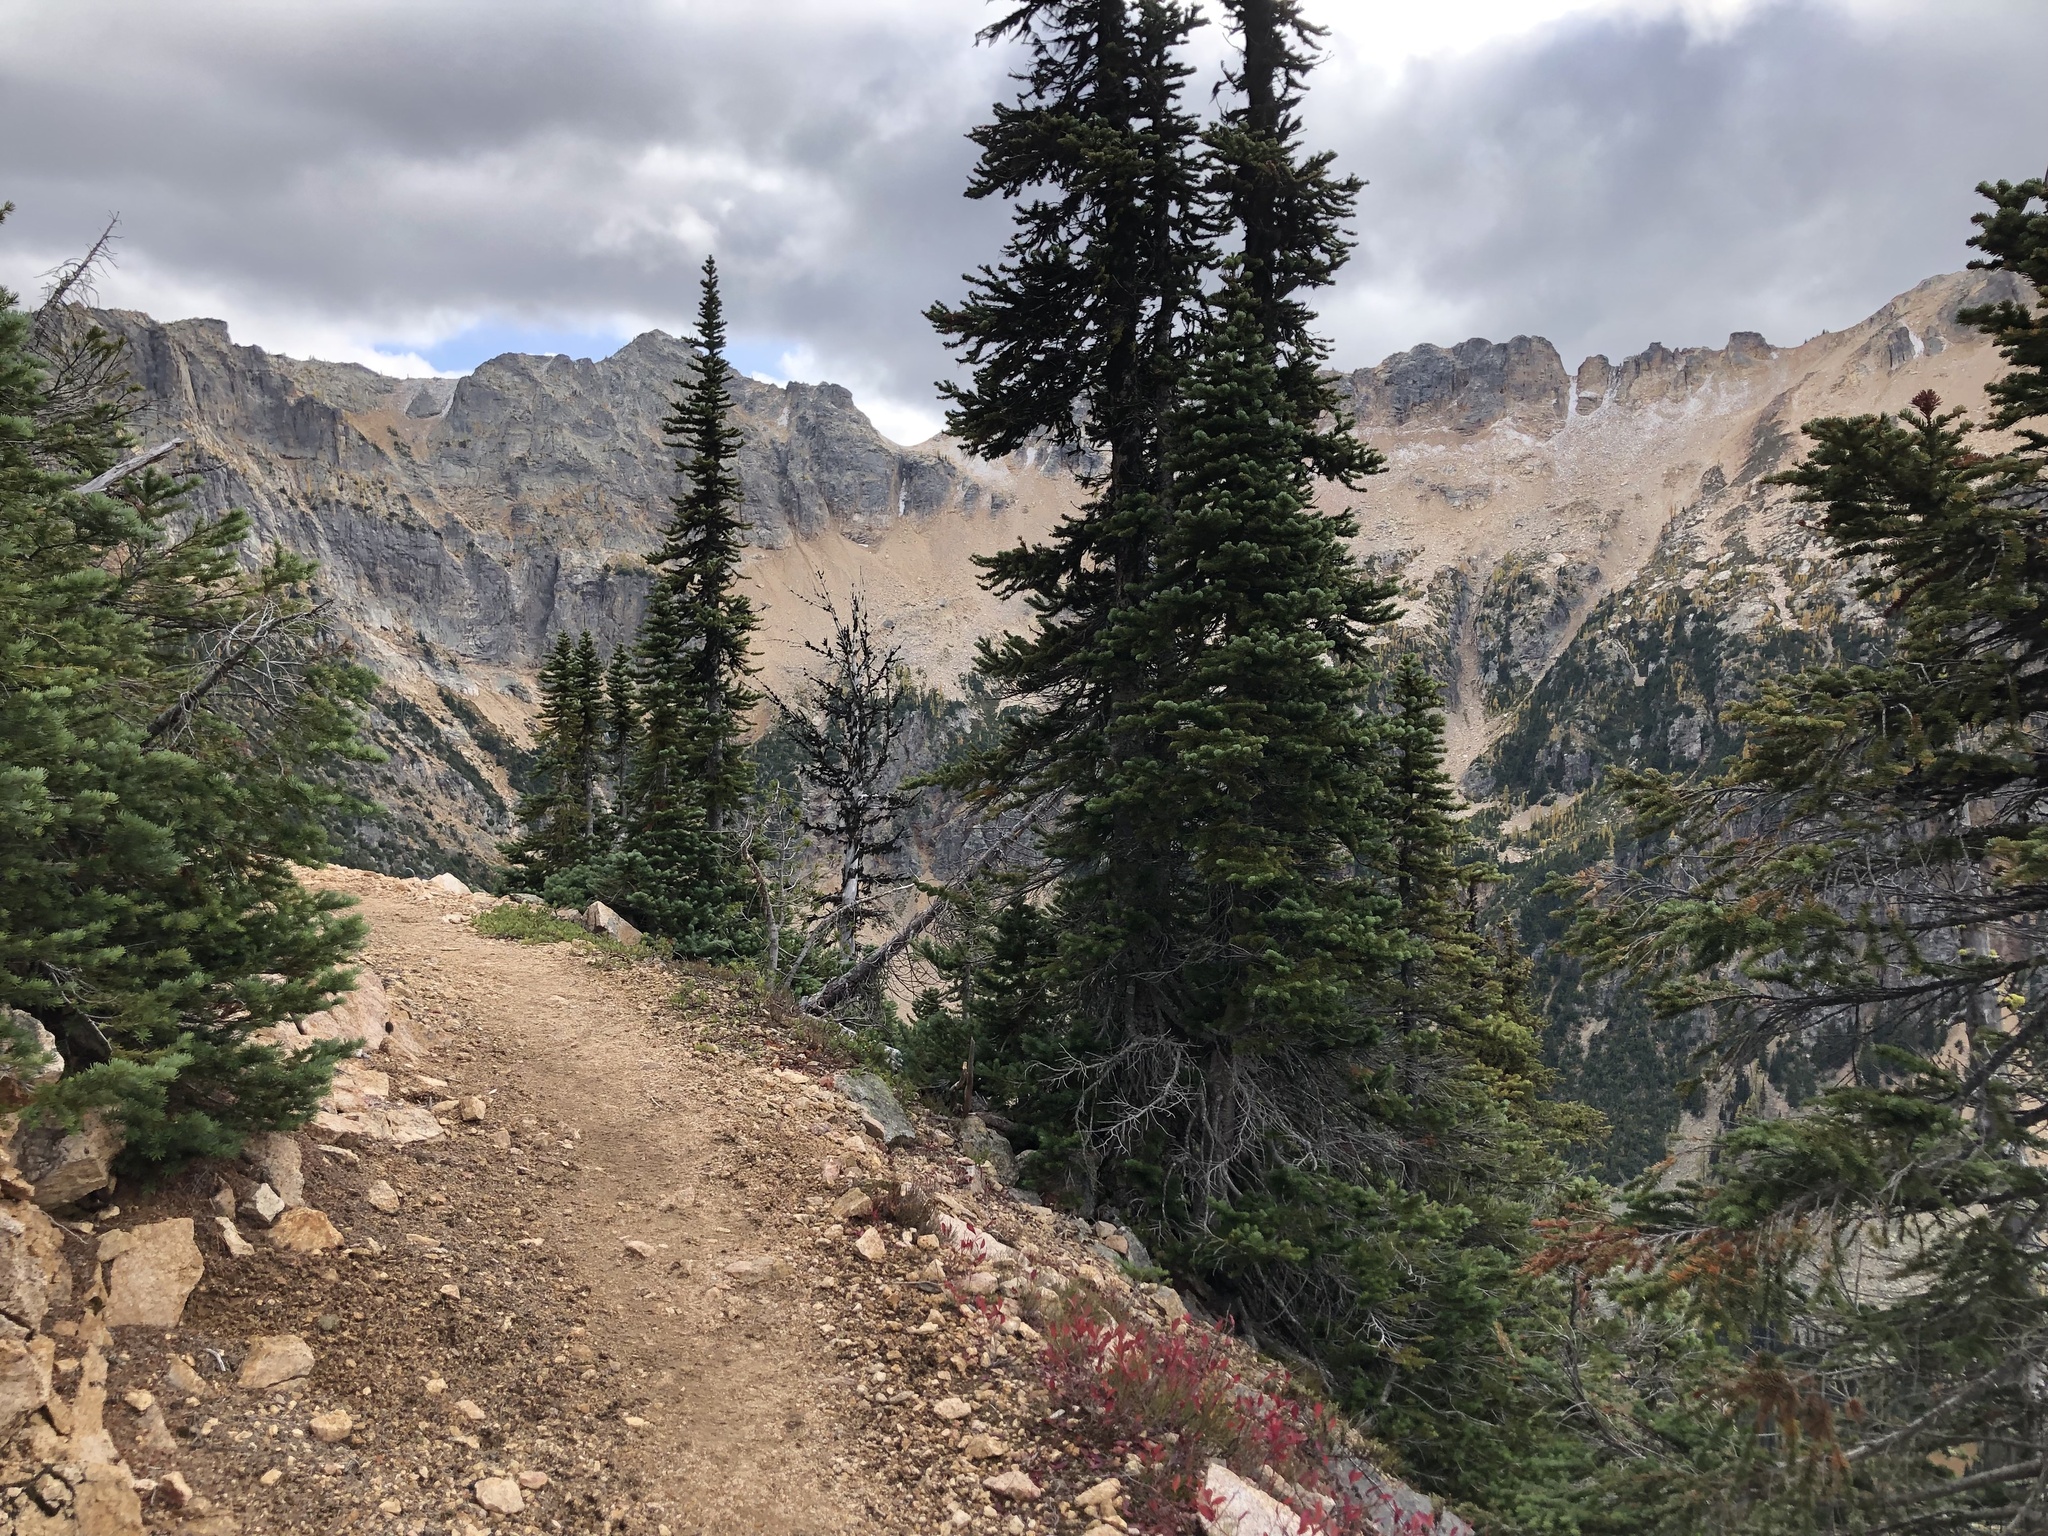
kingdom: Plantae
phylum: Tracheophyta
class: Pinopsida
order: Pinales
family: Pinaceae
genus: Abies
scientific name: Abies lasiocarpa
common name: Subalpine fir
